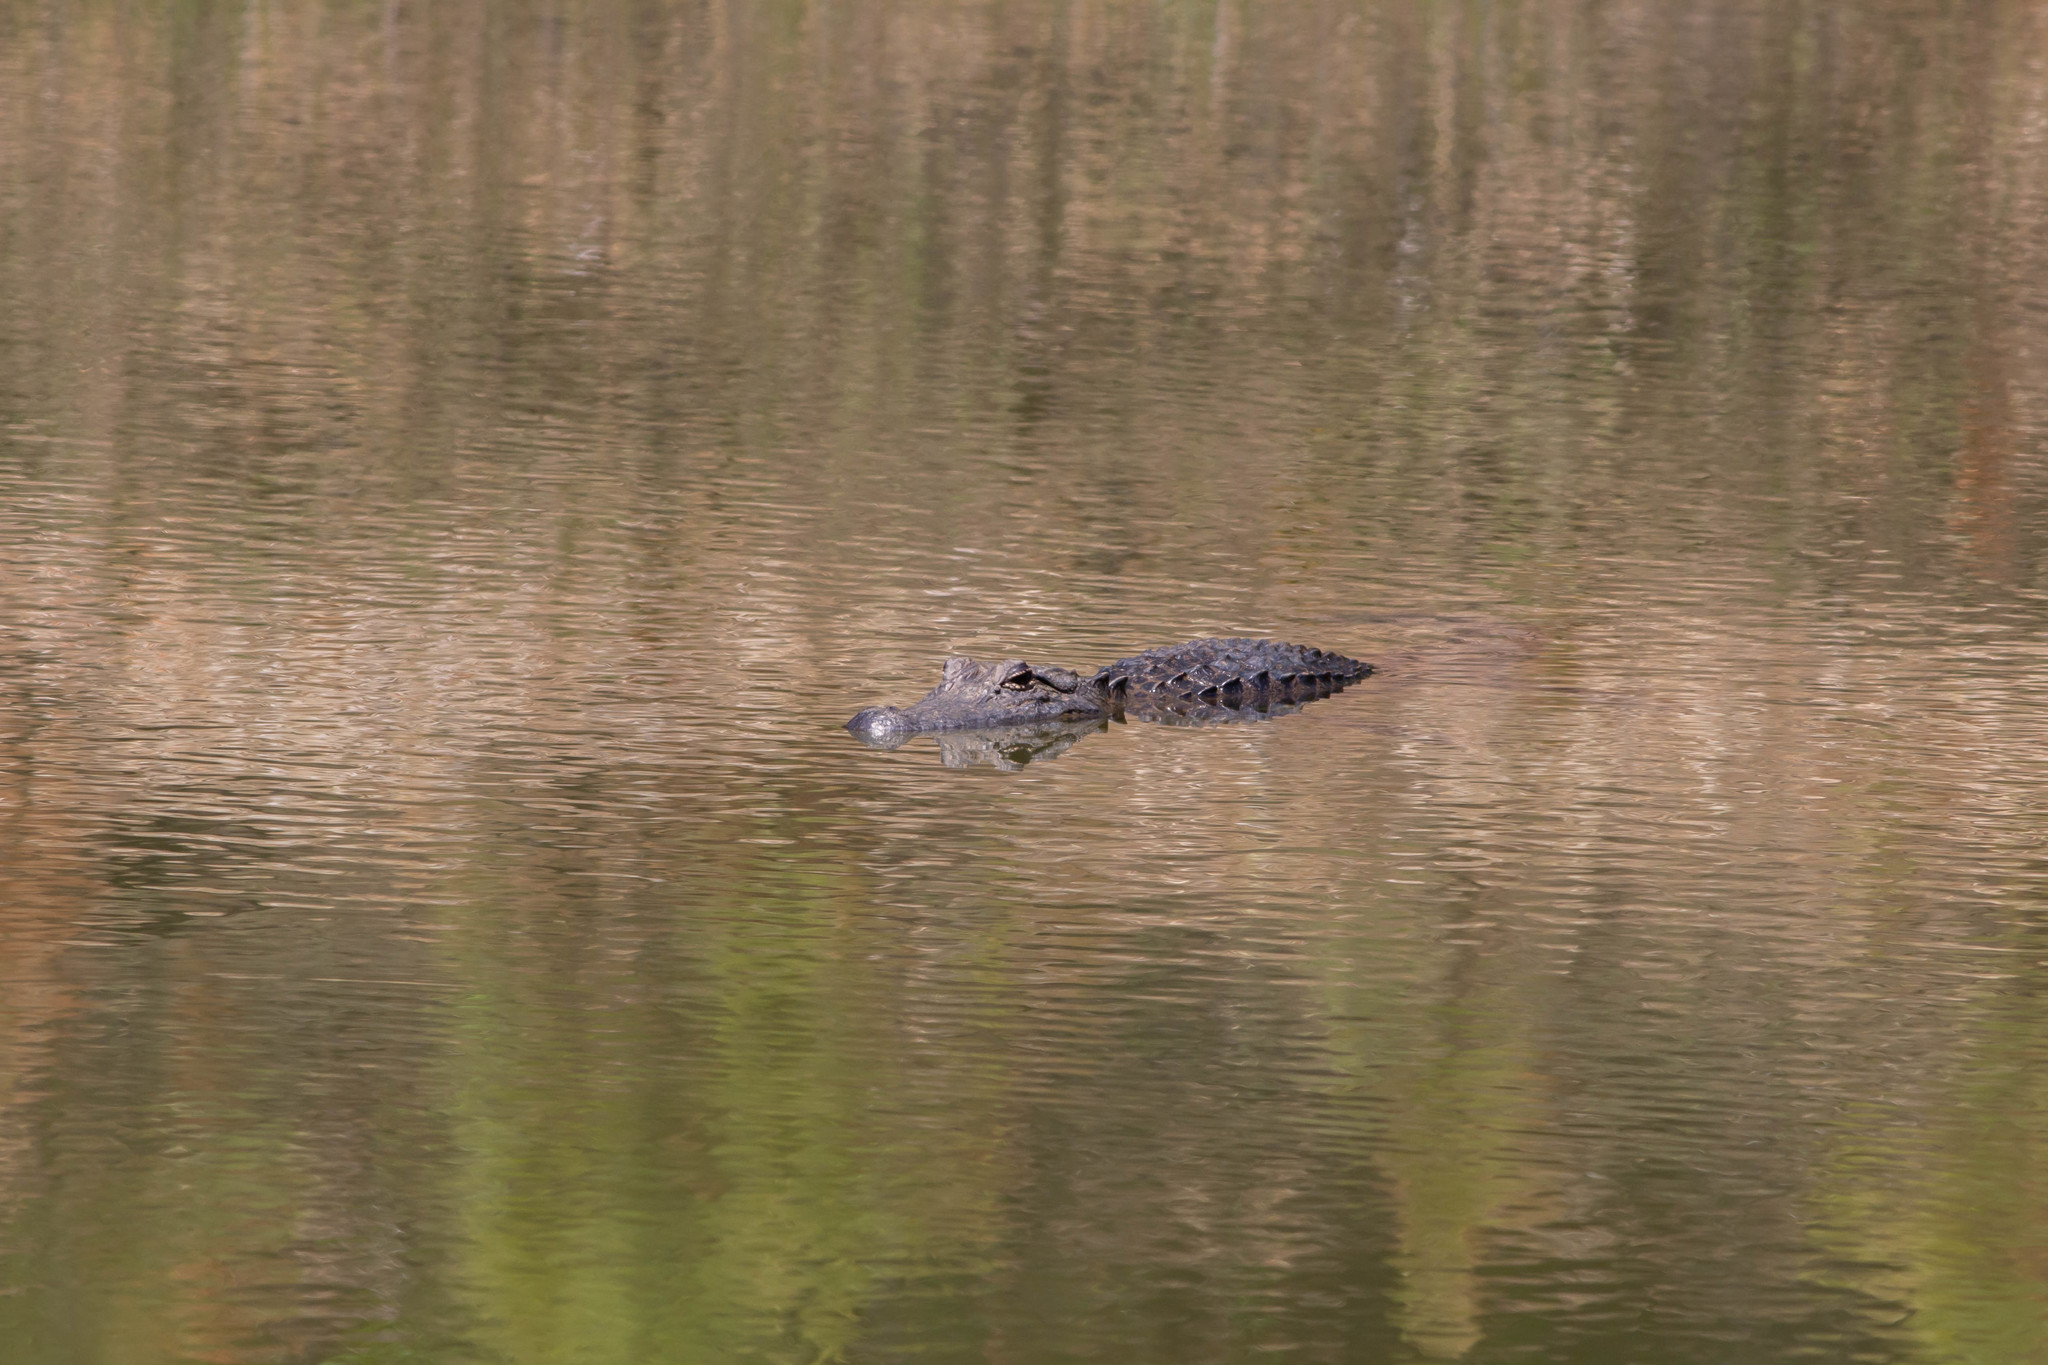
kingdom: Animalia
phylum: Chordata
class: Crocodylia
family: Alligatoridae
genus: Alligator
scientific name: Alligator mississippiensis
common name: American alligator
